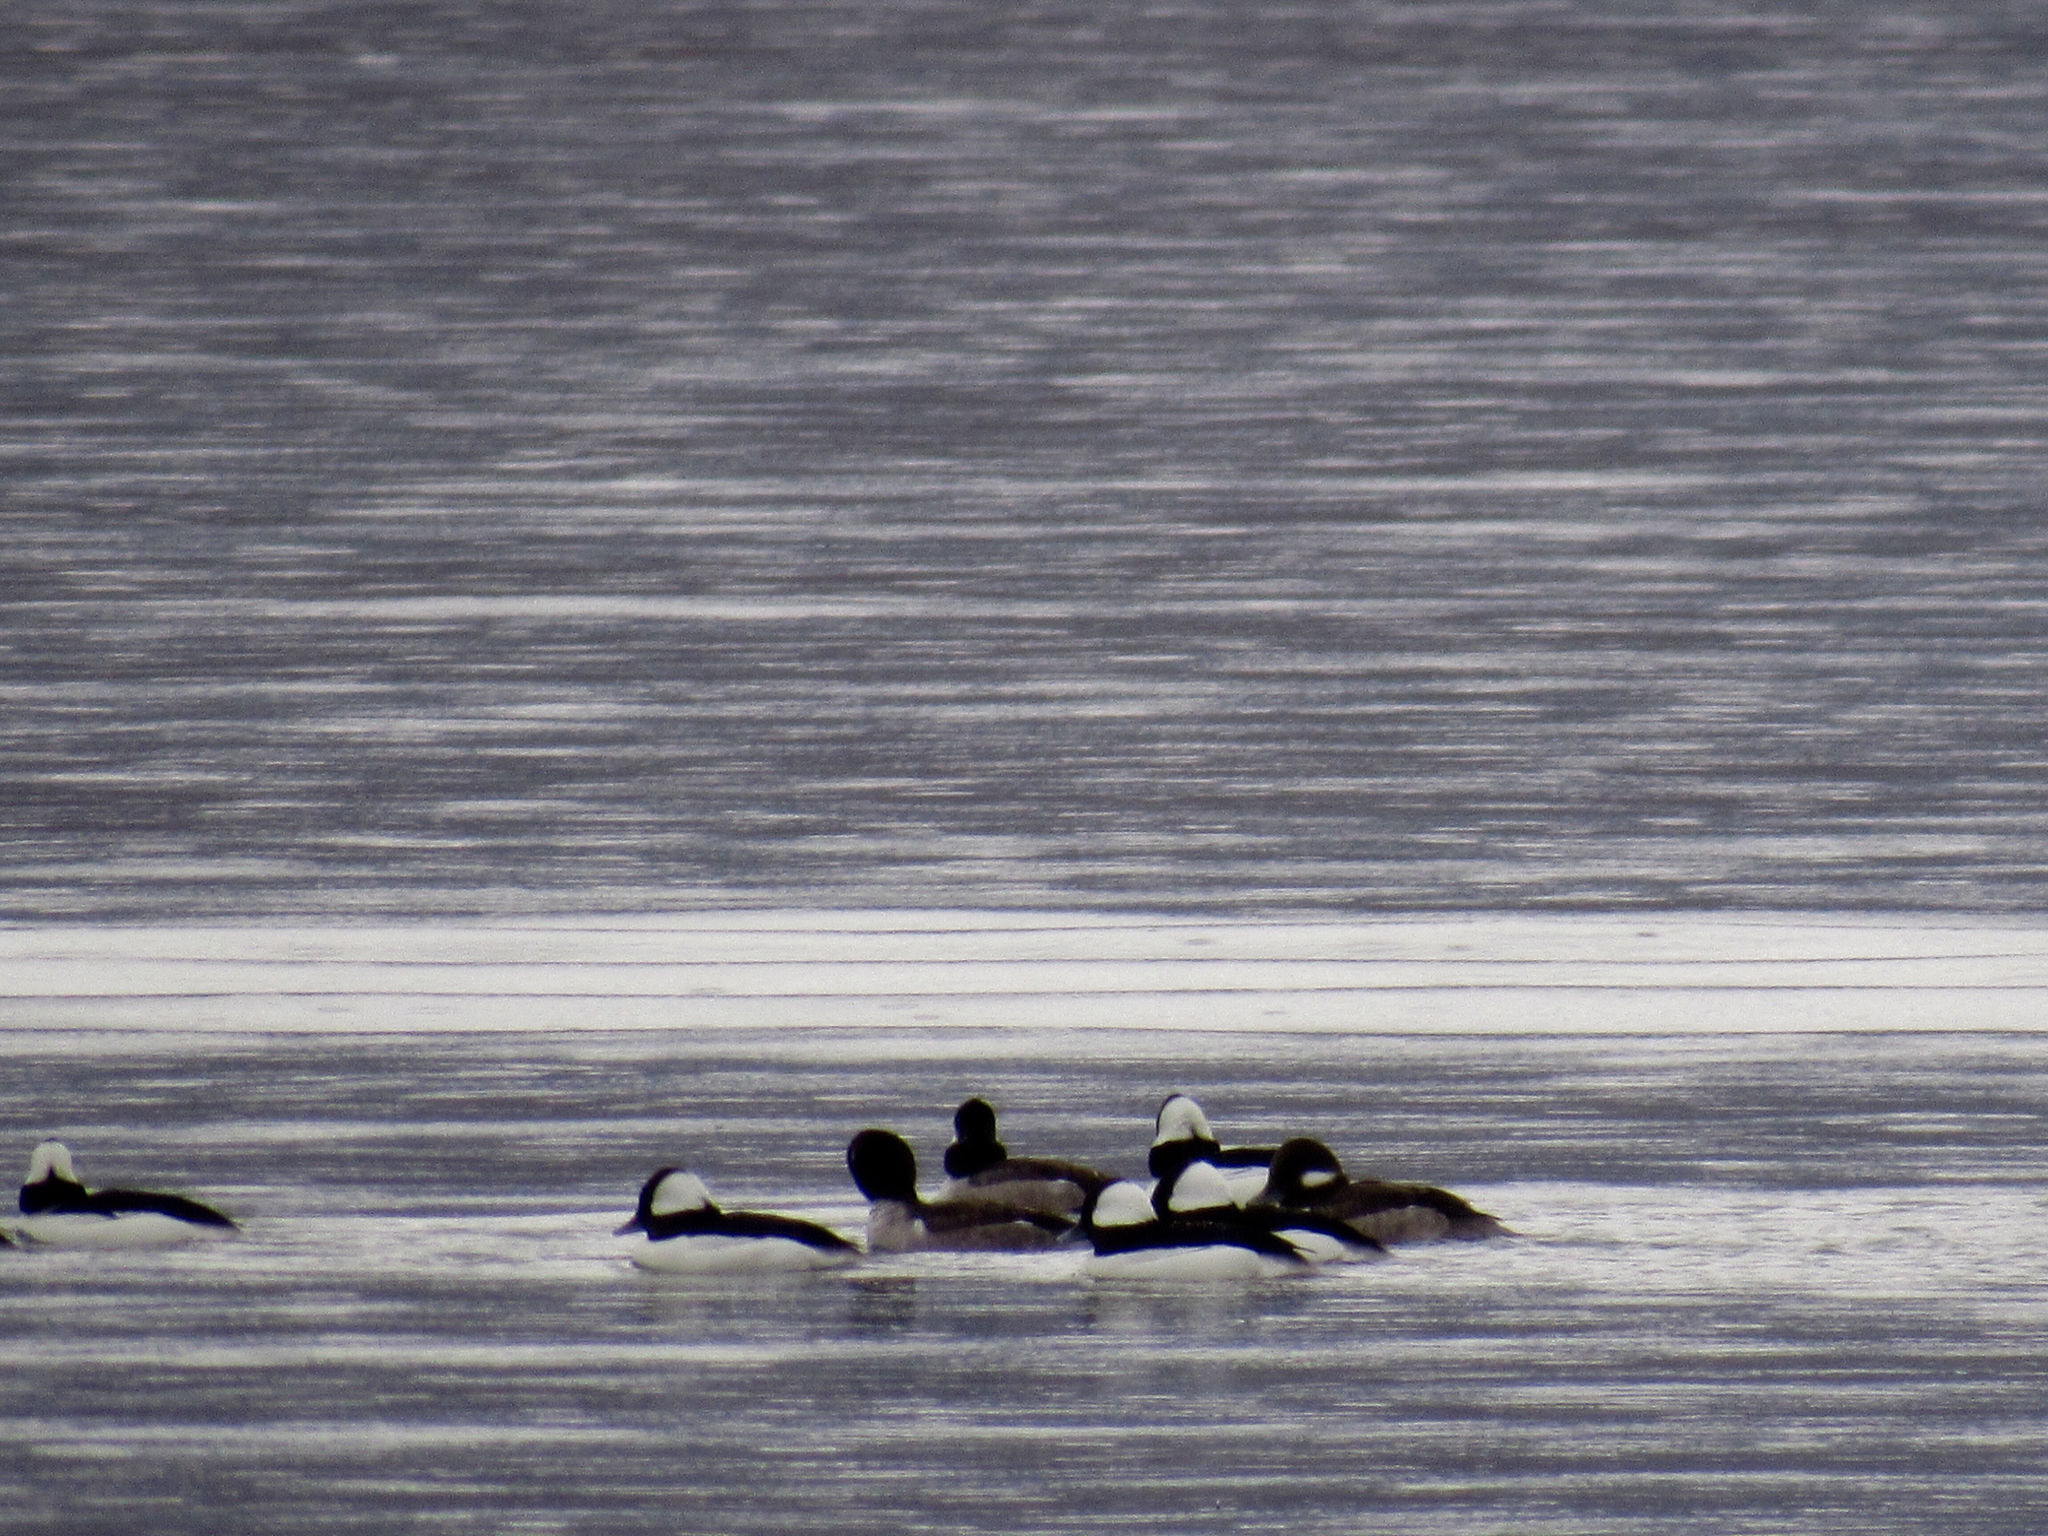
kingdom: Animalia
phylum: Chordata
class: Aves
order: Anseriformes
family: Anatidae
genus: Bucephala
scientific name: Bucephala albeola
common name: Bufflehead
